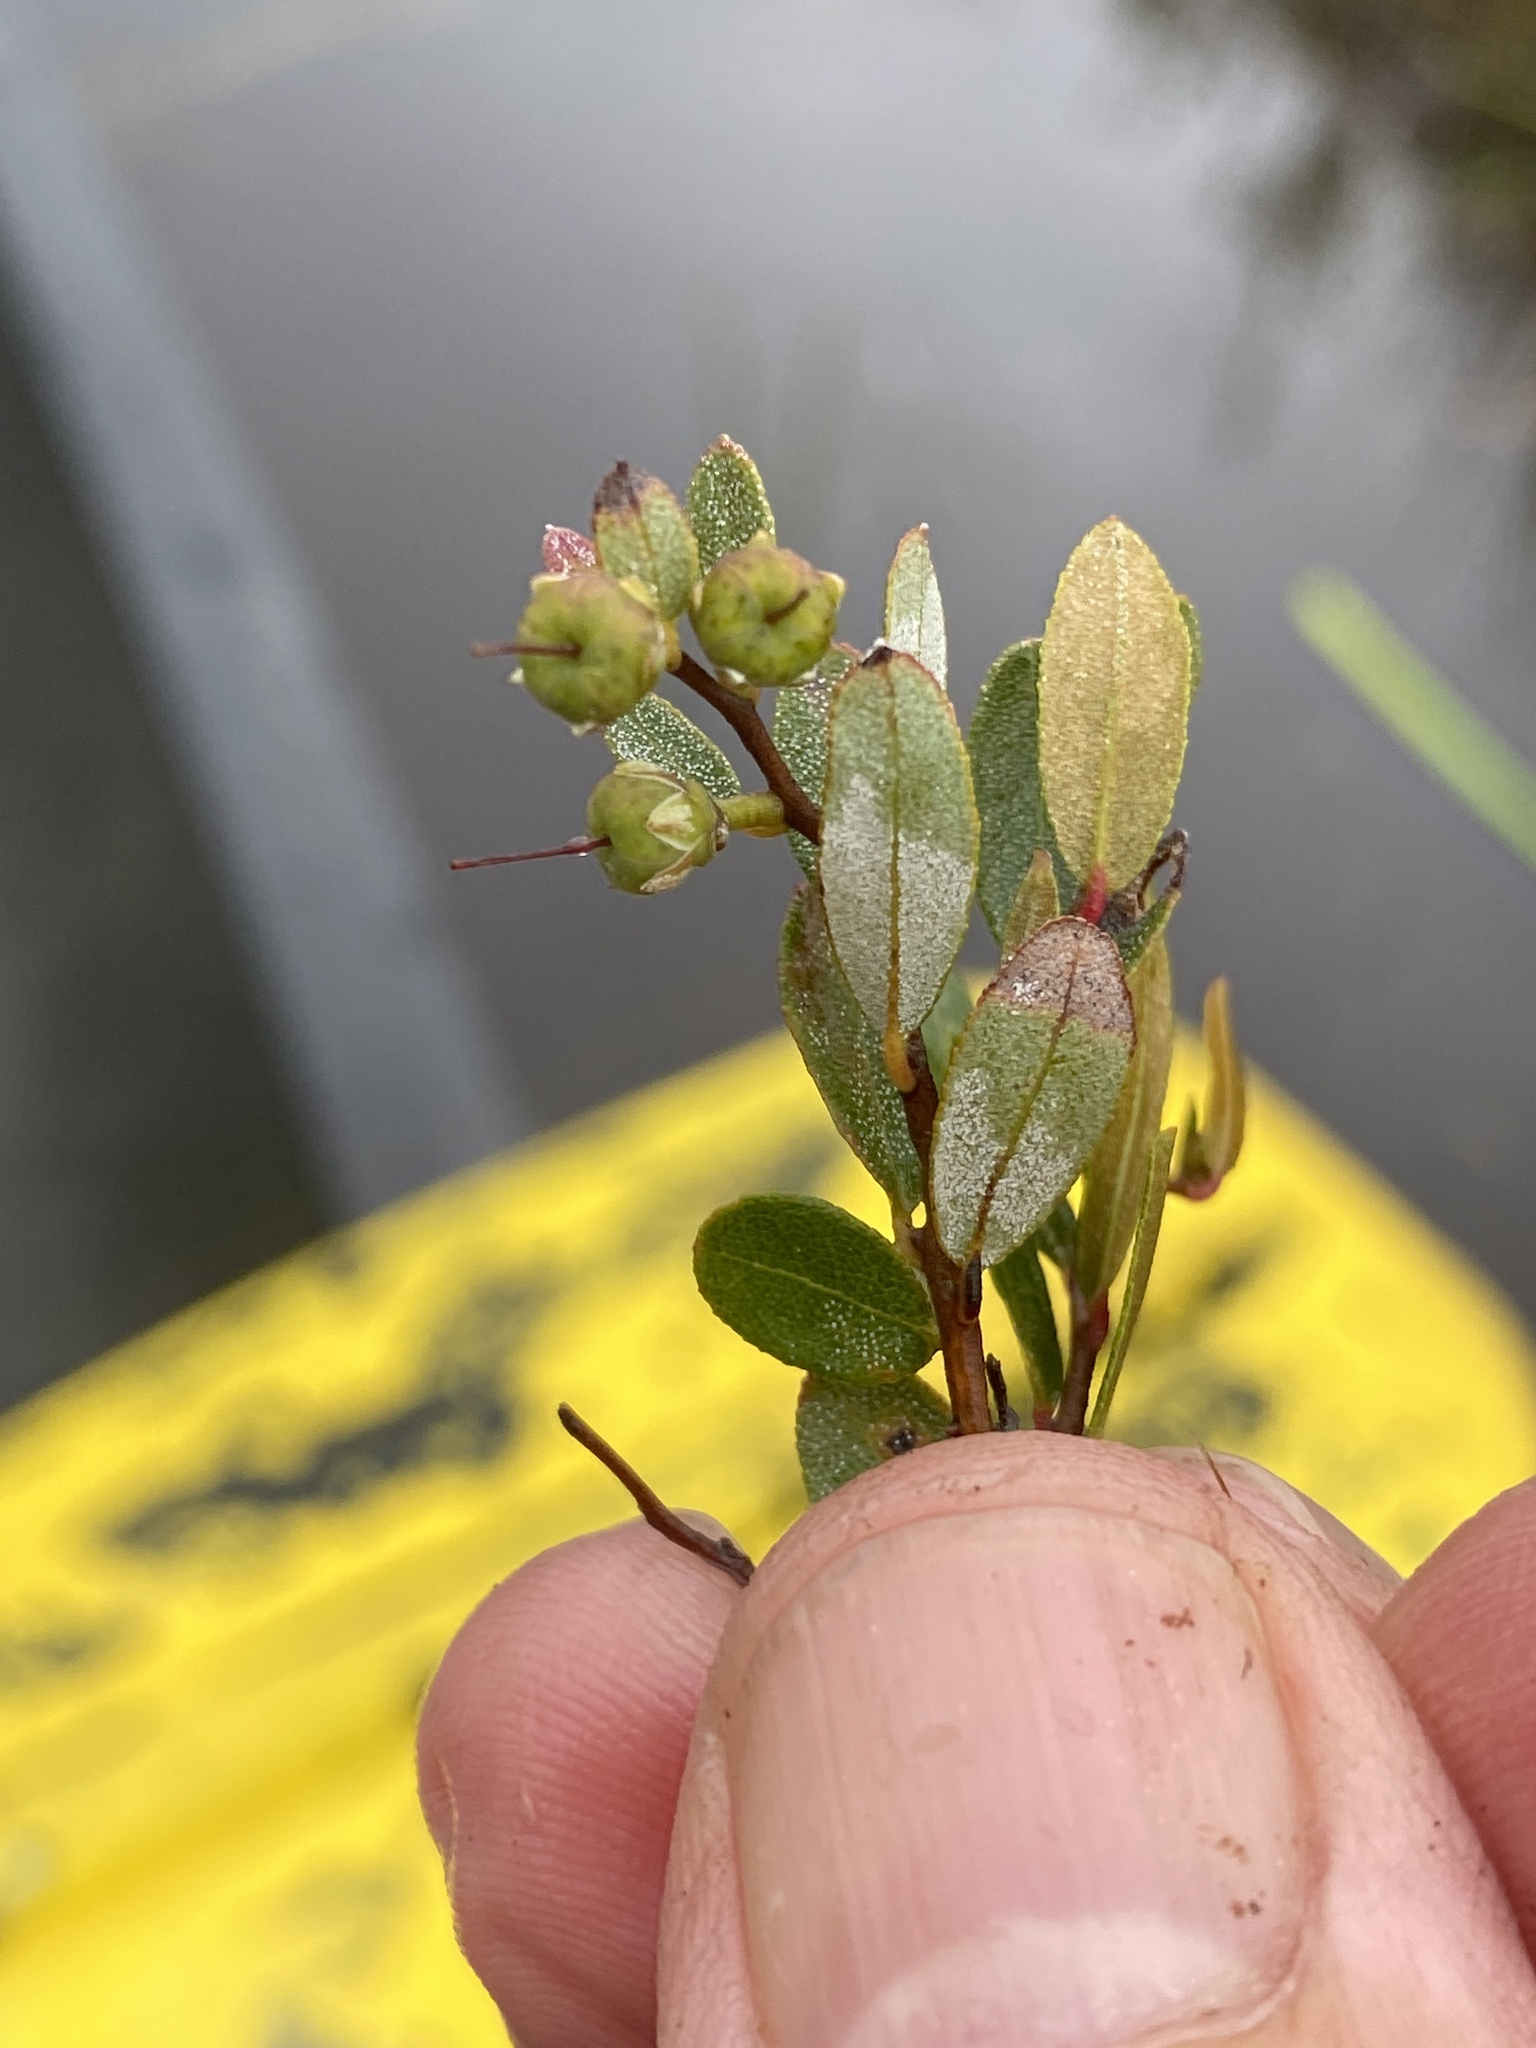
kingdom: Plantae
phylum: Tracheophyta
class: Magnoliopsida
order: Ericales
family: Ericaceae
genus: Chamaedaphne
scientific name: Chamaedaphne calyculata
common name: Leatherleaf
